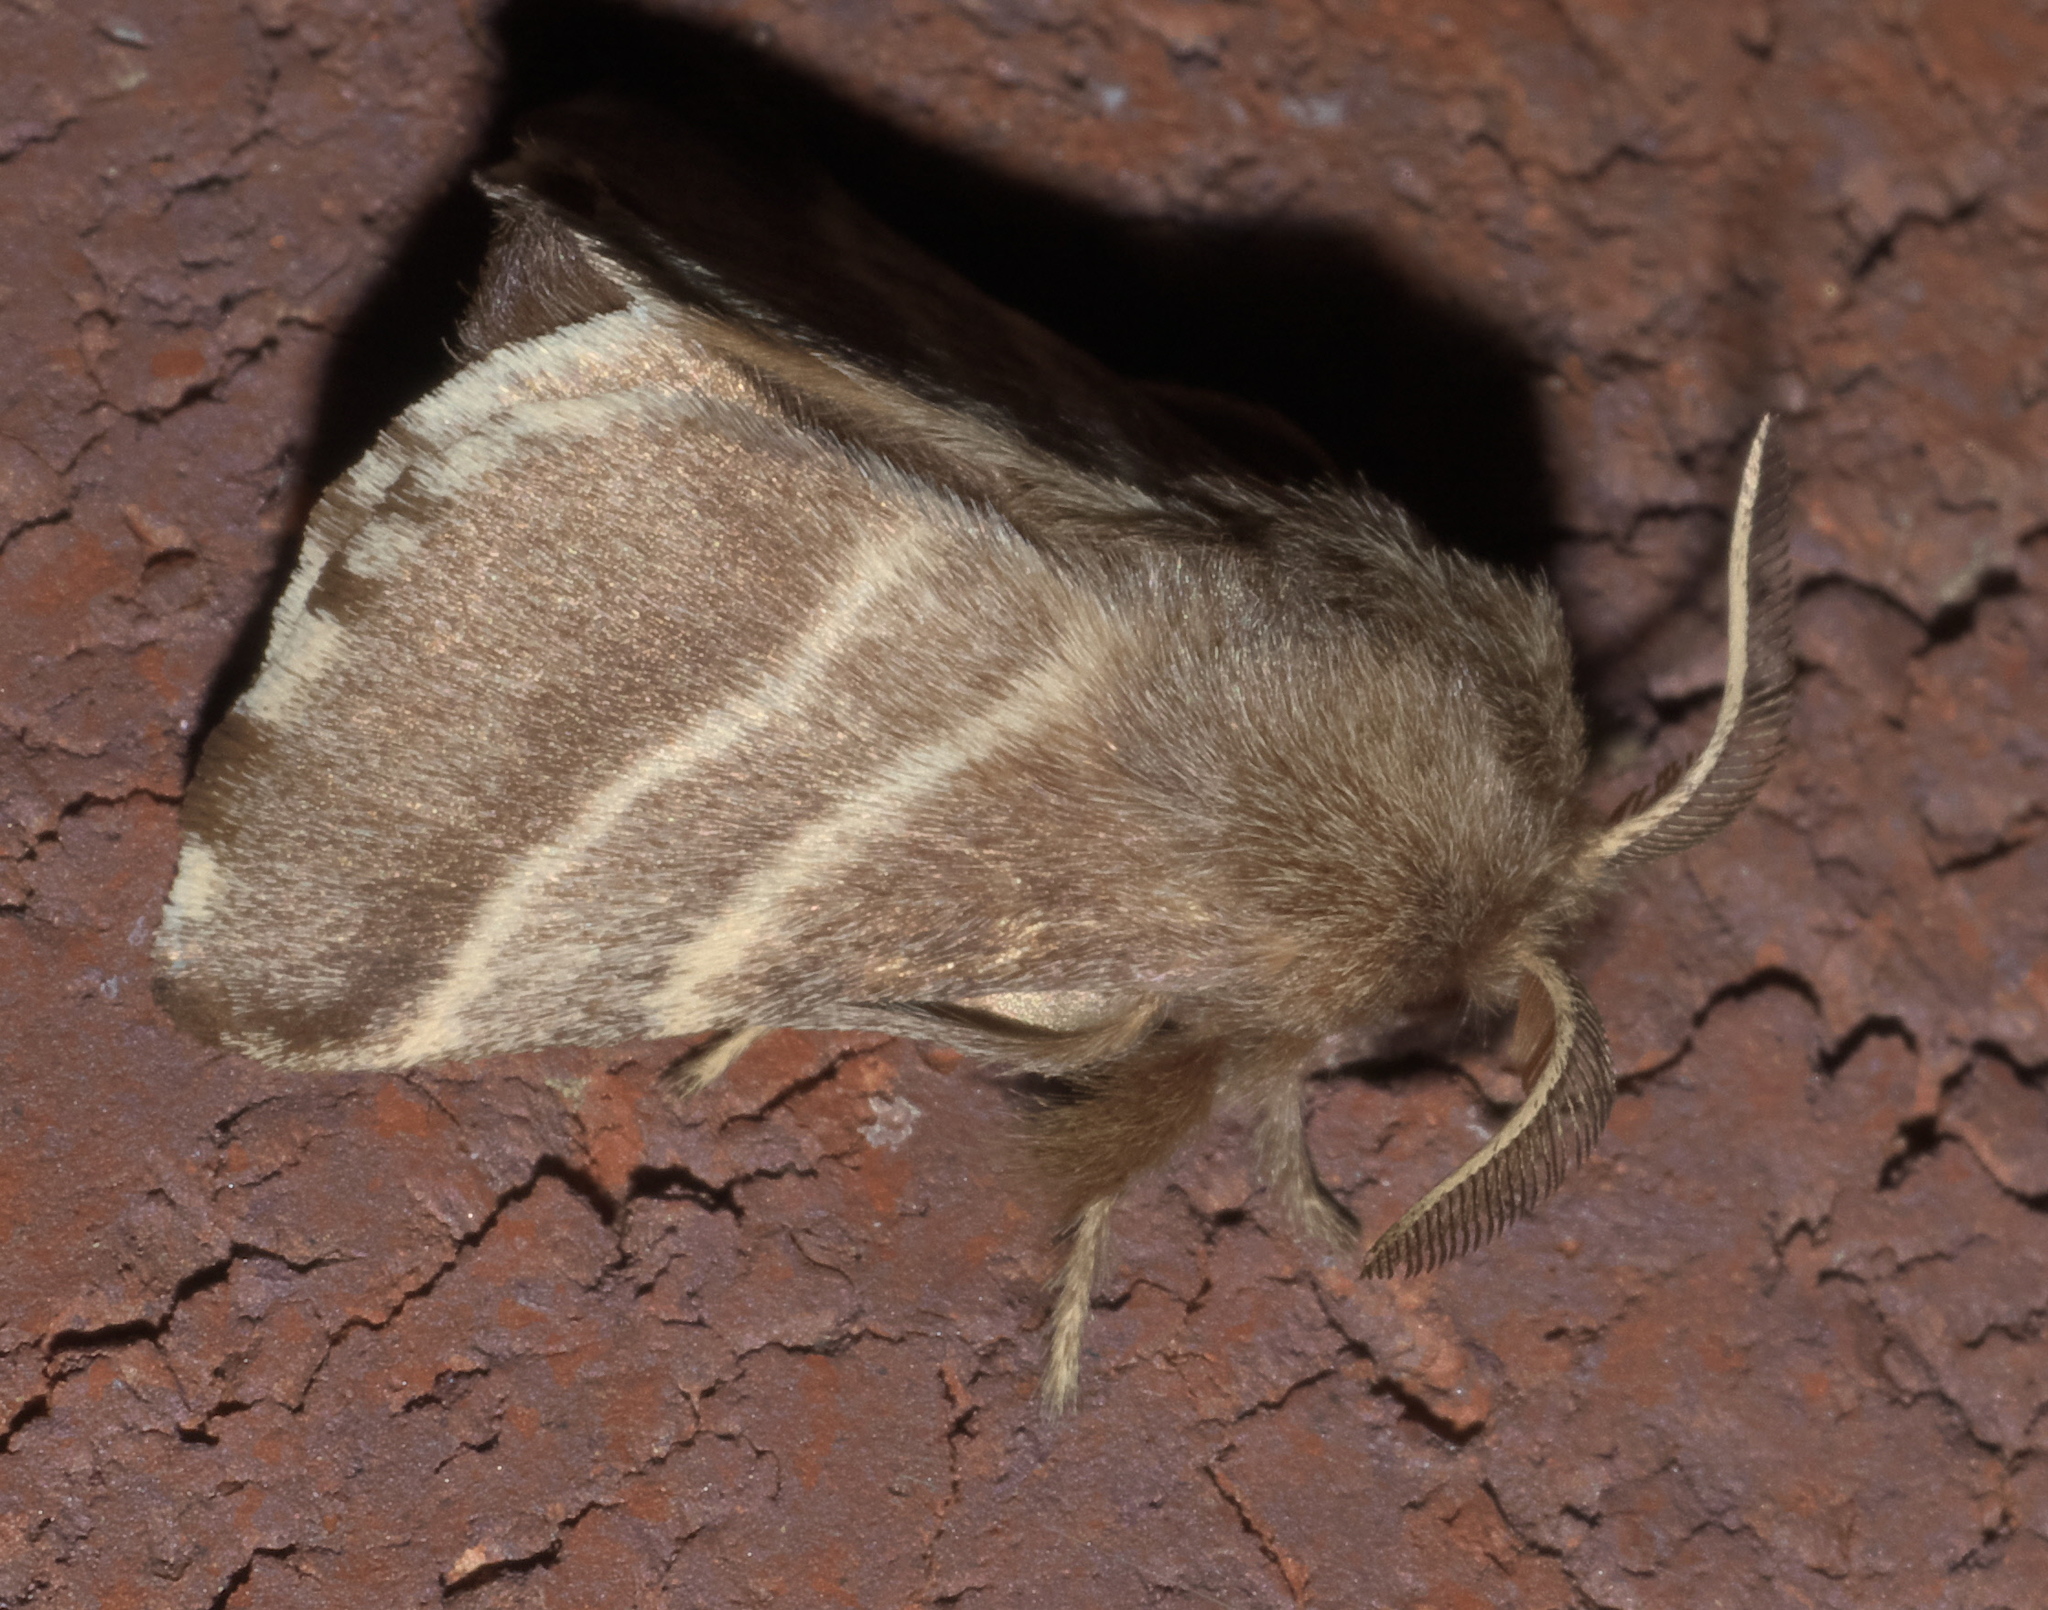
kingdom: Animalia
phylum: Arthropoda
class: Insecta
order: Lepidoptera
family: Lasiocampidae
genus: Malacosoma
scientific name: Malacosoma americana
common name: Eastern tent caterpillar moth
